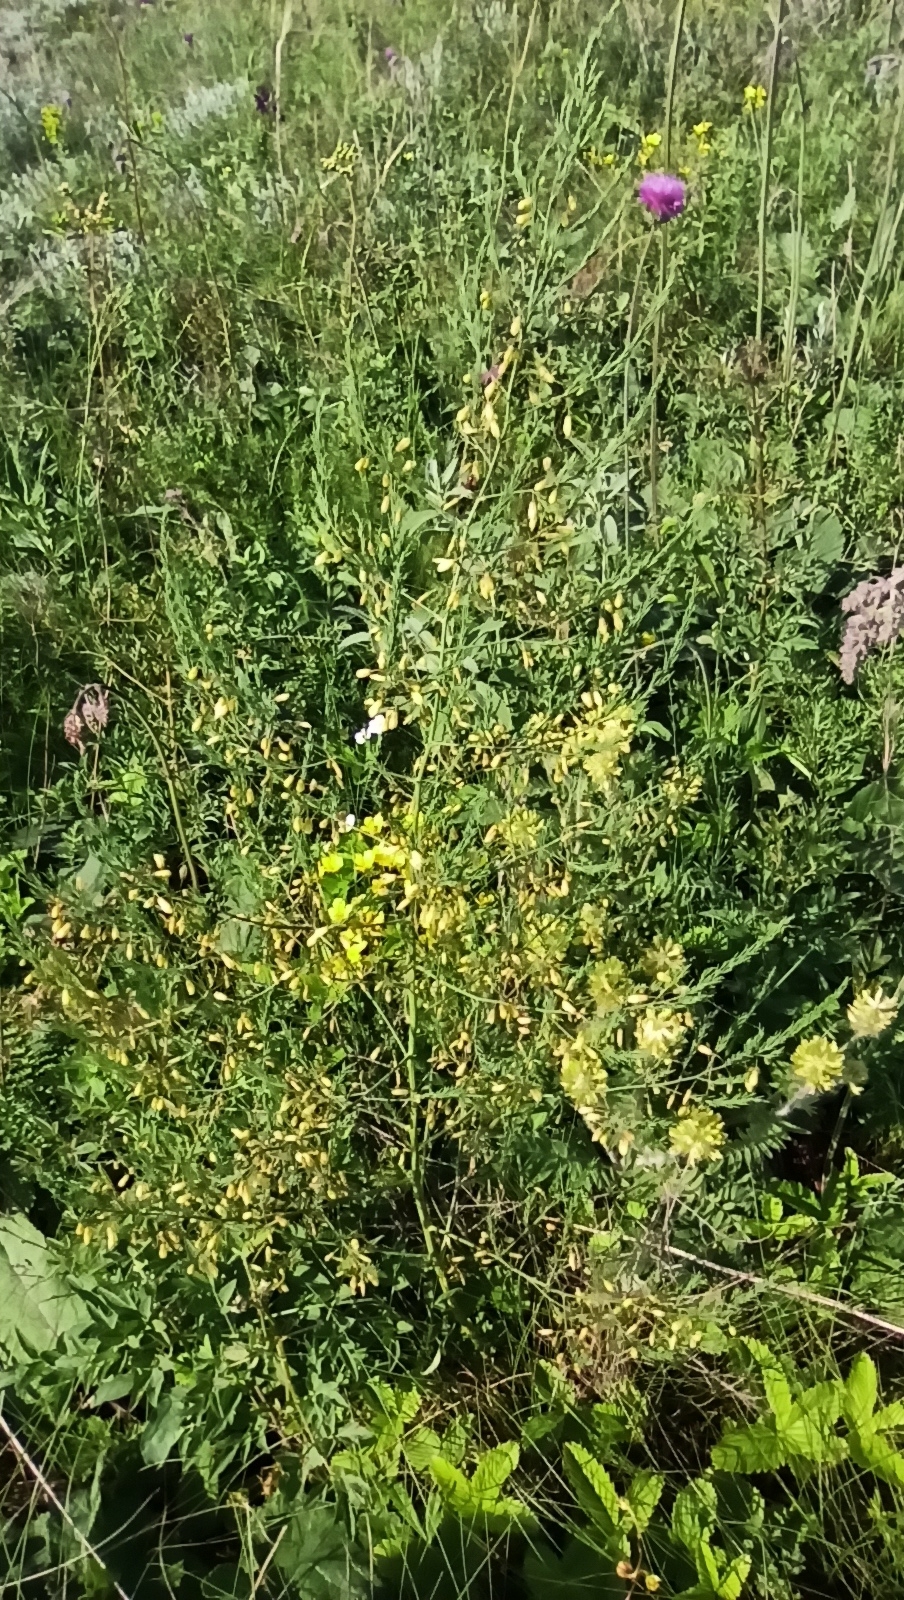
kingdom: Plantae
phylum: Tracheophyta
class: Liliopsida
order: Asparagales
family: Asparagaceae
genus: Asparagus
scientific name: Asparagus officinalis
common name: Garden asparagus
